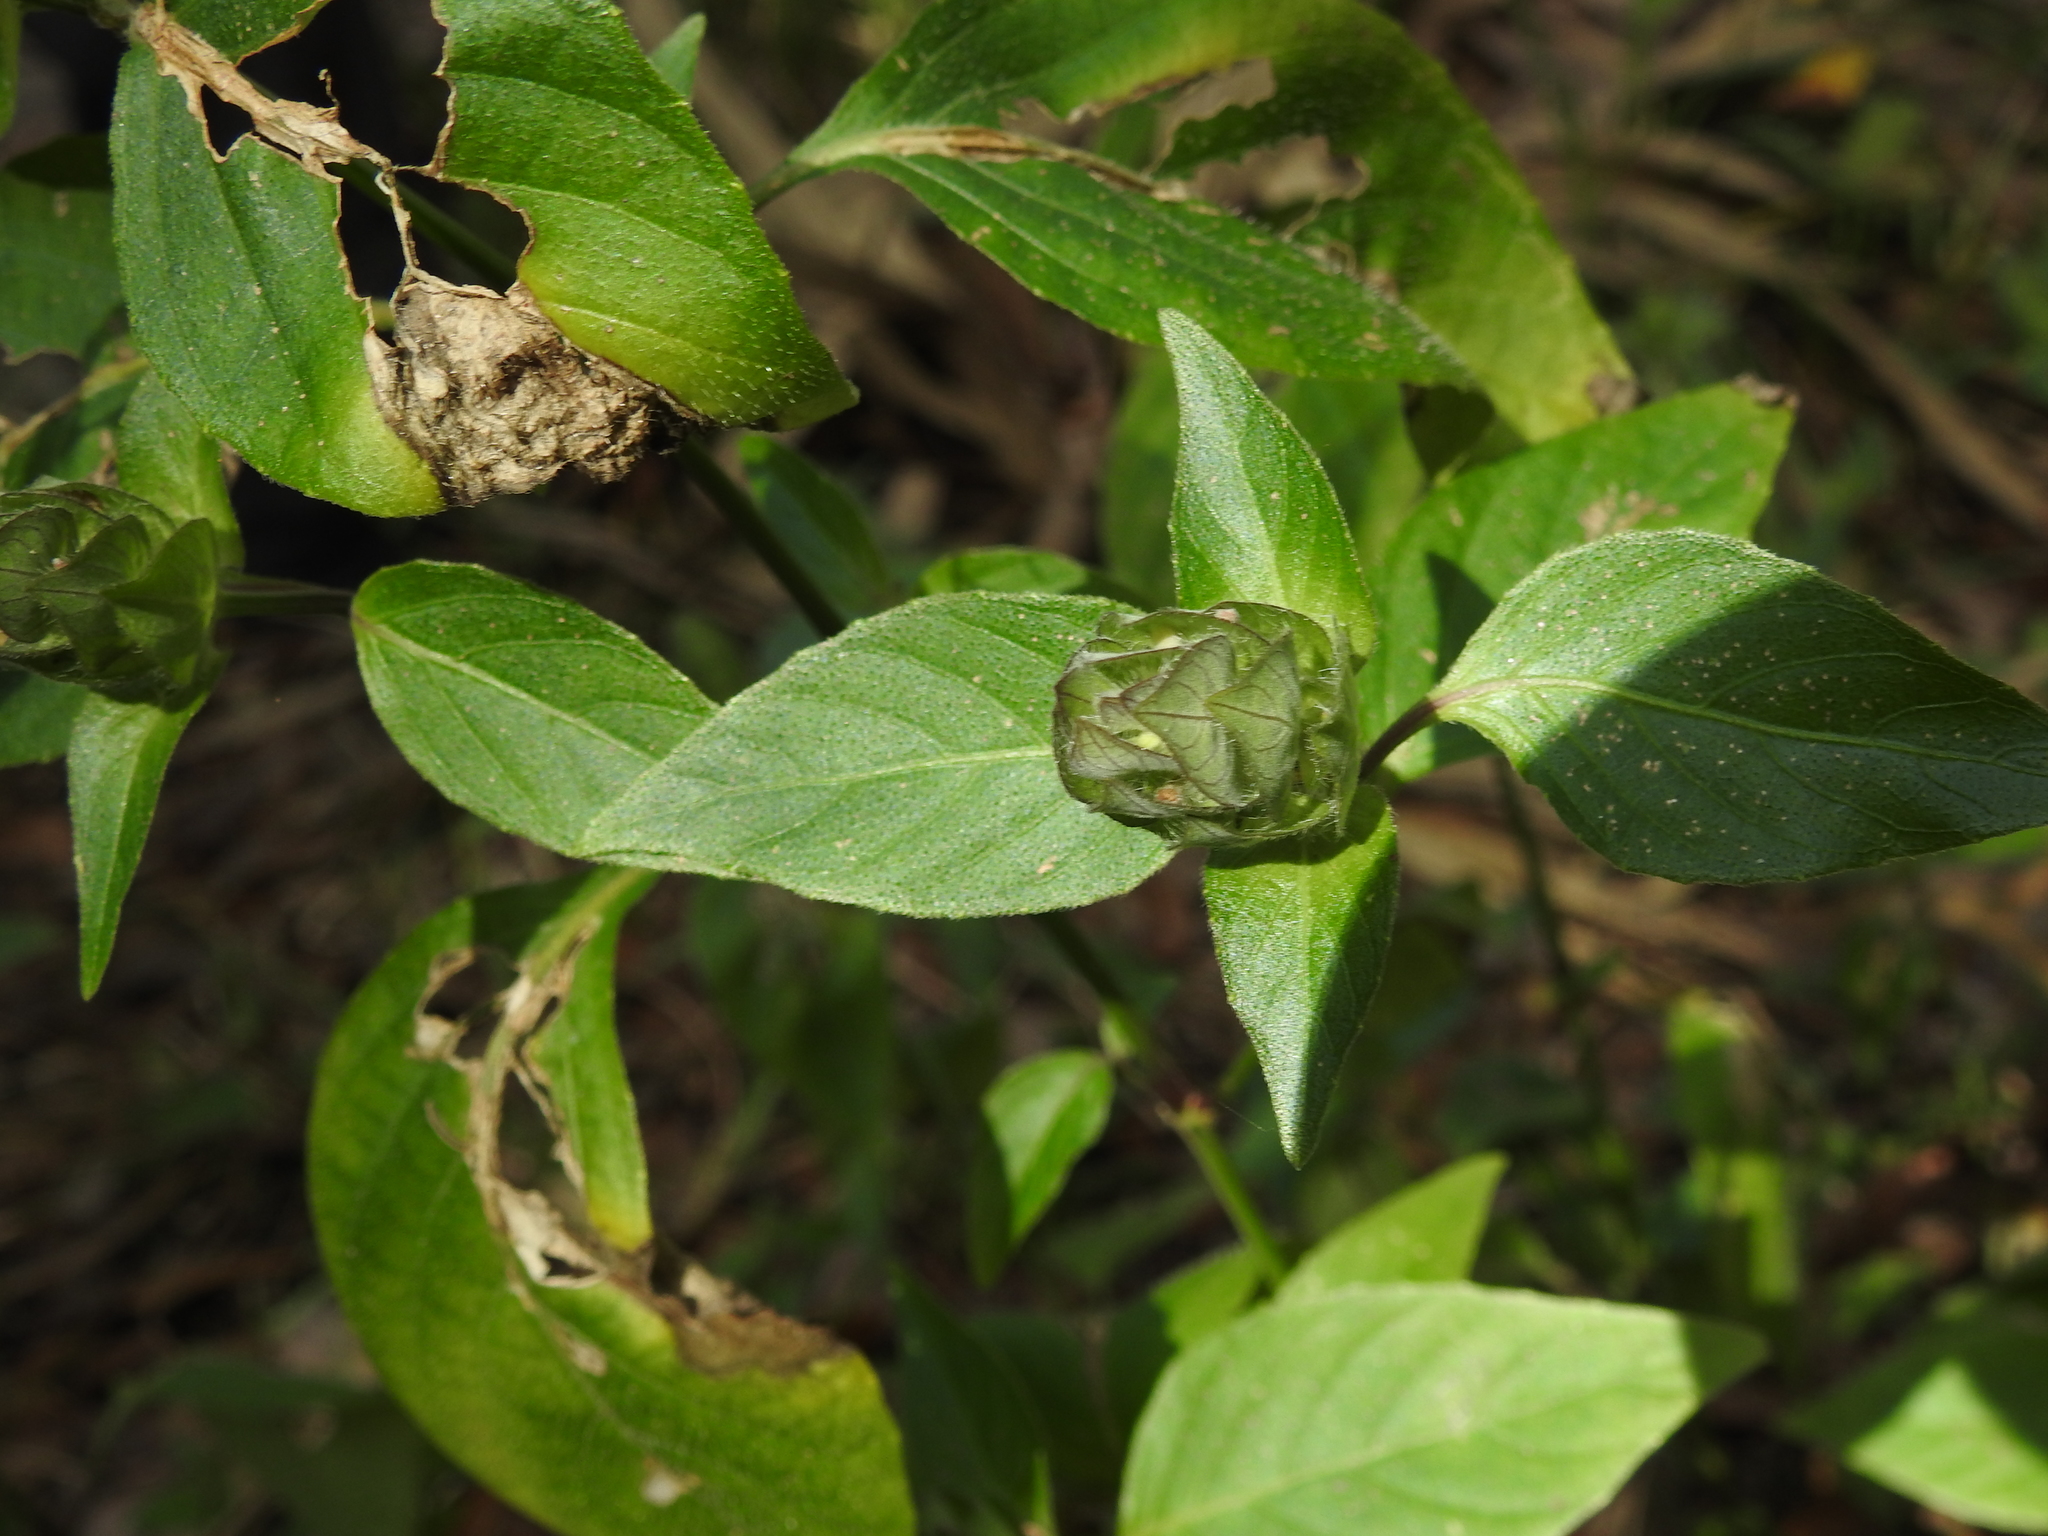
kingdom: Plantae
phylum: Tracheophyta
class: Magnoliopsida
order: Lamiales
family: Acanthaceae
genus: Ruellia
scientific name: Ruellia blechum
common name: Browne's blechum
